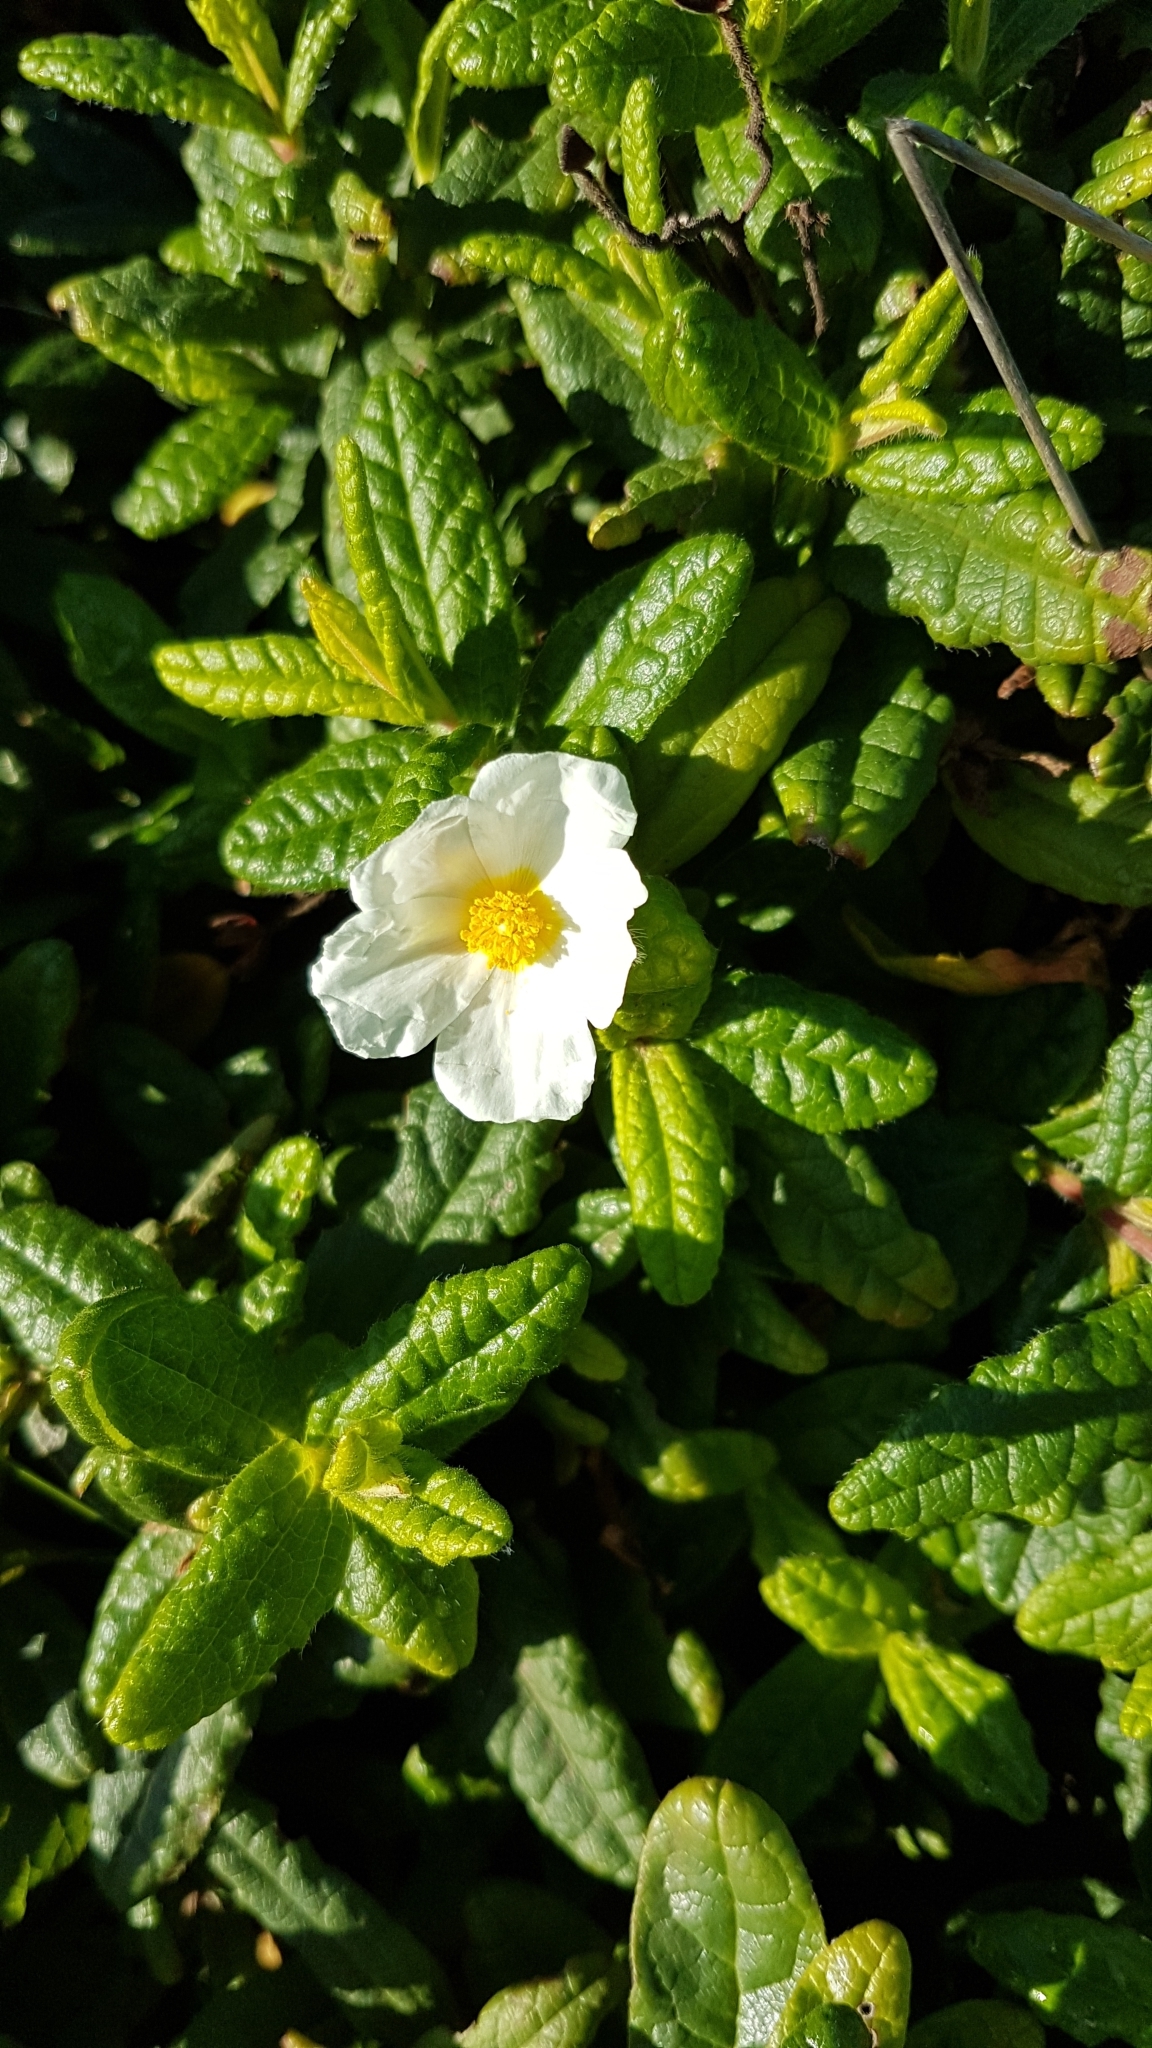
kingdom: Plantae
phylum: Tracheophyta
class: Magnoliopsida
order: Malvales
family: Cistaceae
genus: Cistus
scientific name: Cistus inflatus
